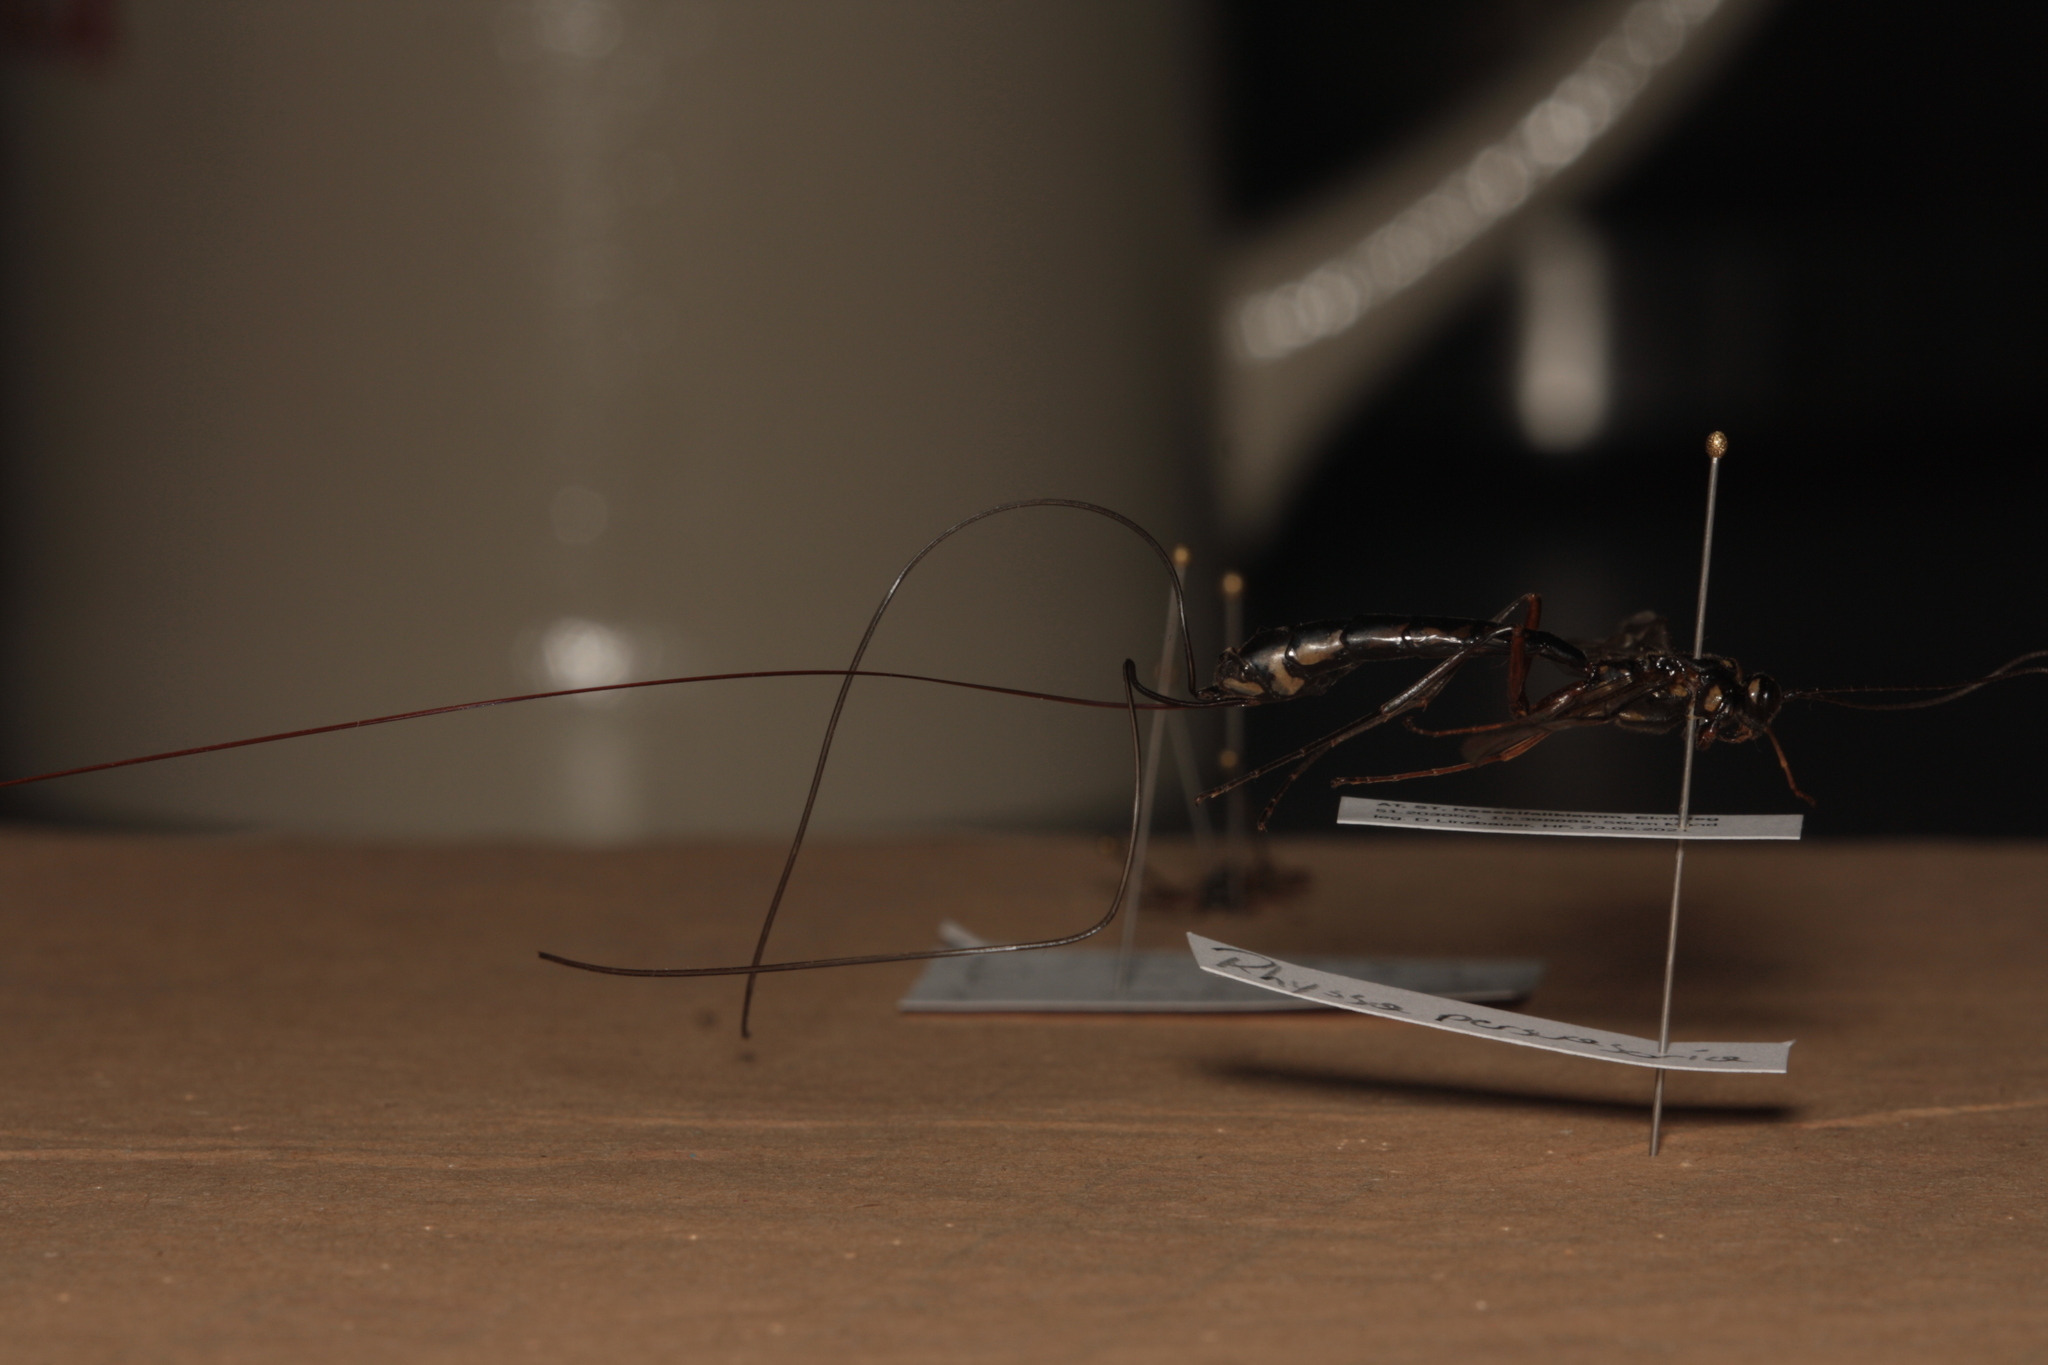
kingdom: Animalia
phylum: Arthropoda
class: Insecta
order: Hymenoptera
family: Ichneumonidae
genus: Megarhyssa
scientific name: Megarhyssa rixator
